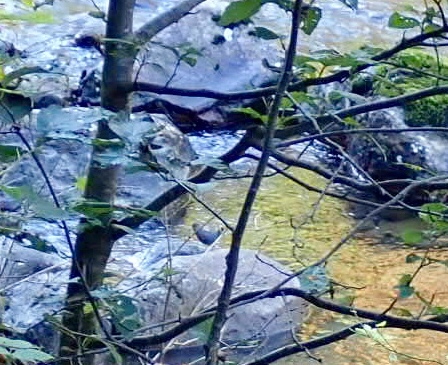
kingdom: Animalia
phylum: Chordata
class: Aves
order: Passeriformes
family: Cinclidae
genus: Cinclus
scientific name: Cinclus mexicanus
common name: American dipper
